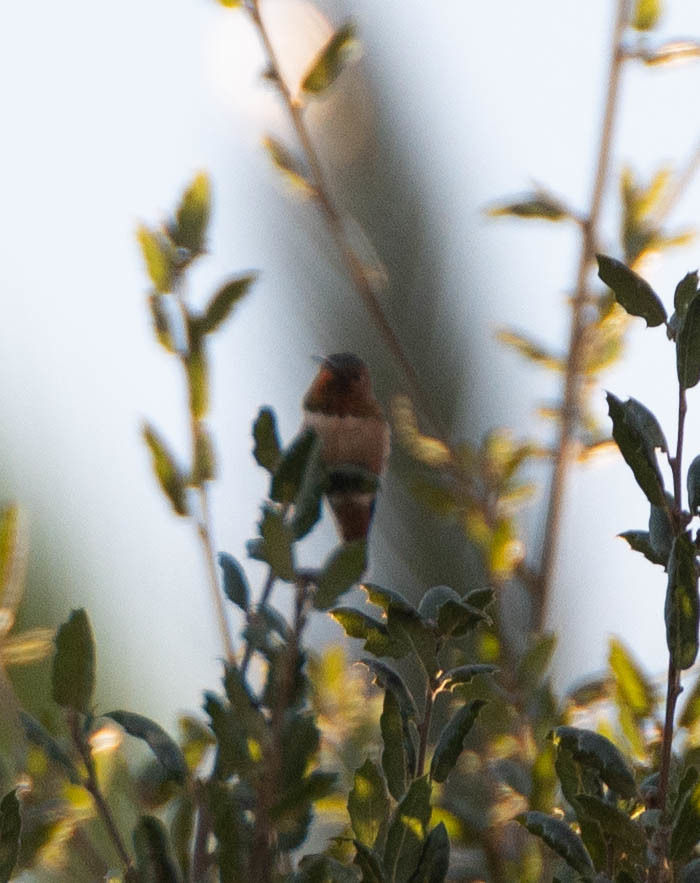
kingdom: Animalia
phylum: Chordata
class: Aves
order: Apodiformes
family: Trochilidae
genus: Selasphorus
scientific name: Selasphorus sasin
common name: Allen's hummingbird
